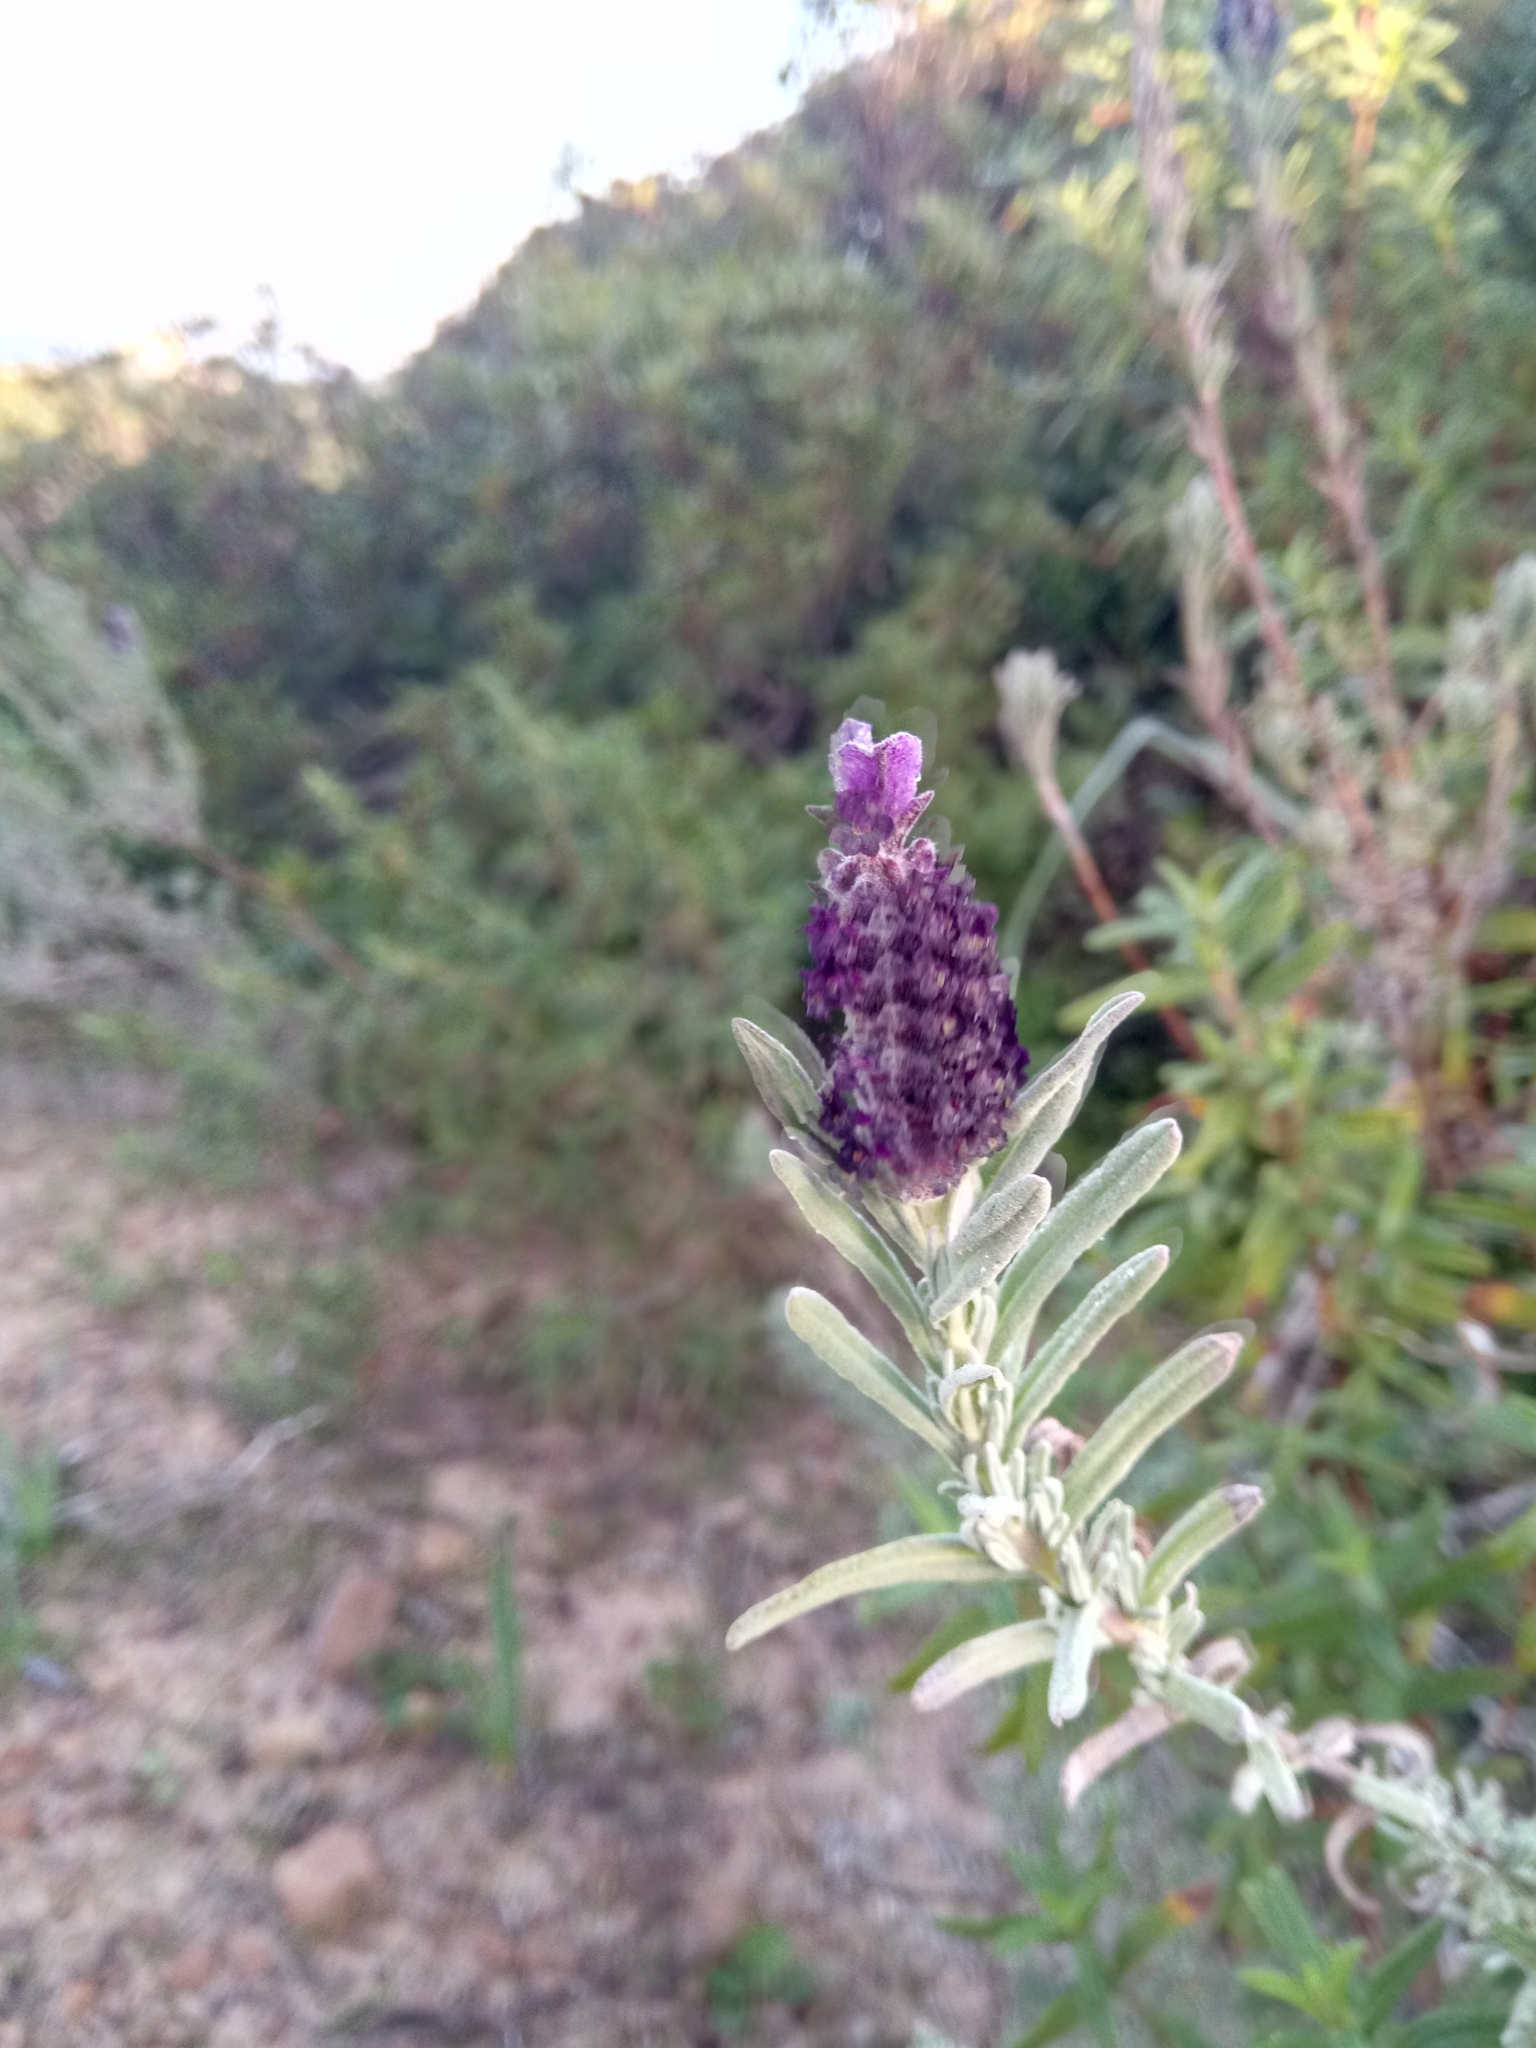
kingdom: Plantae
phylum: Tracheophyta
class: Magnoliopsida
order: Lamiales
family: Lamiaceae
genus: Lavandula
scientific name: Lavandula stoechas
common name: French lavender
